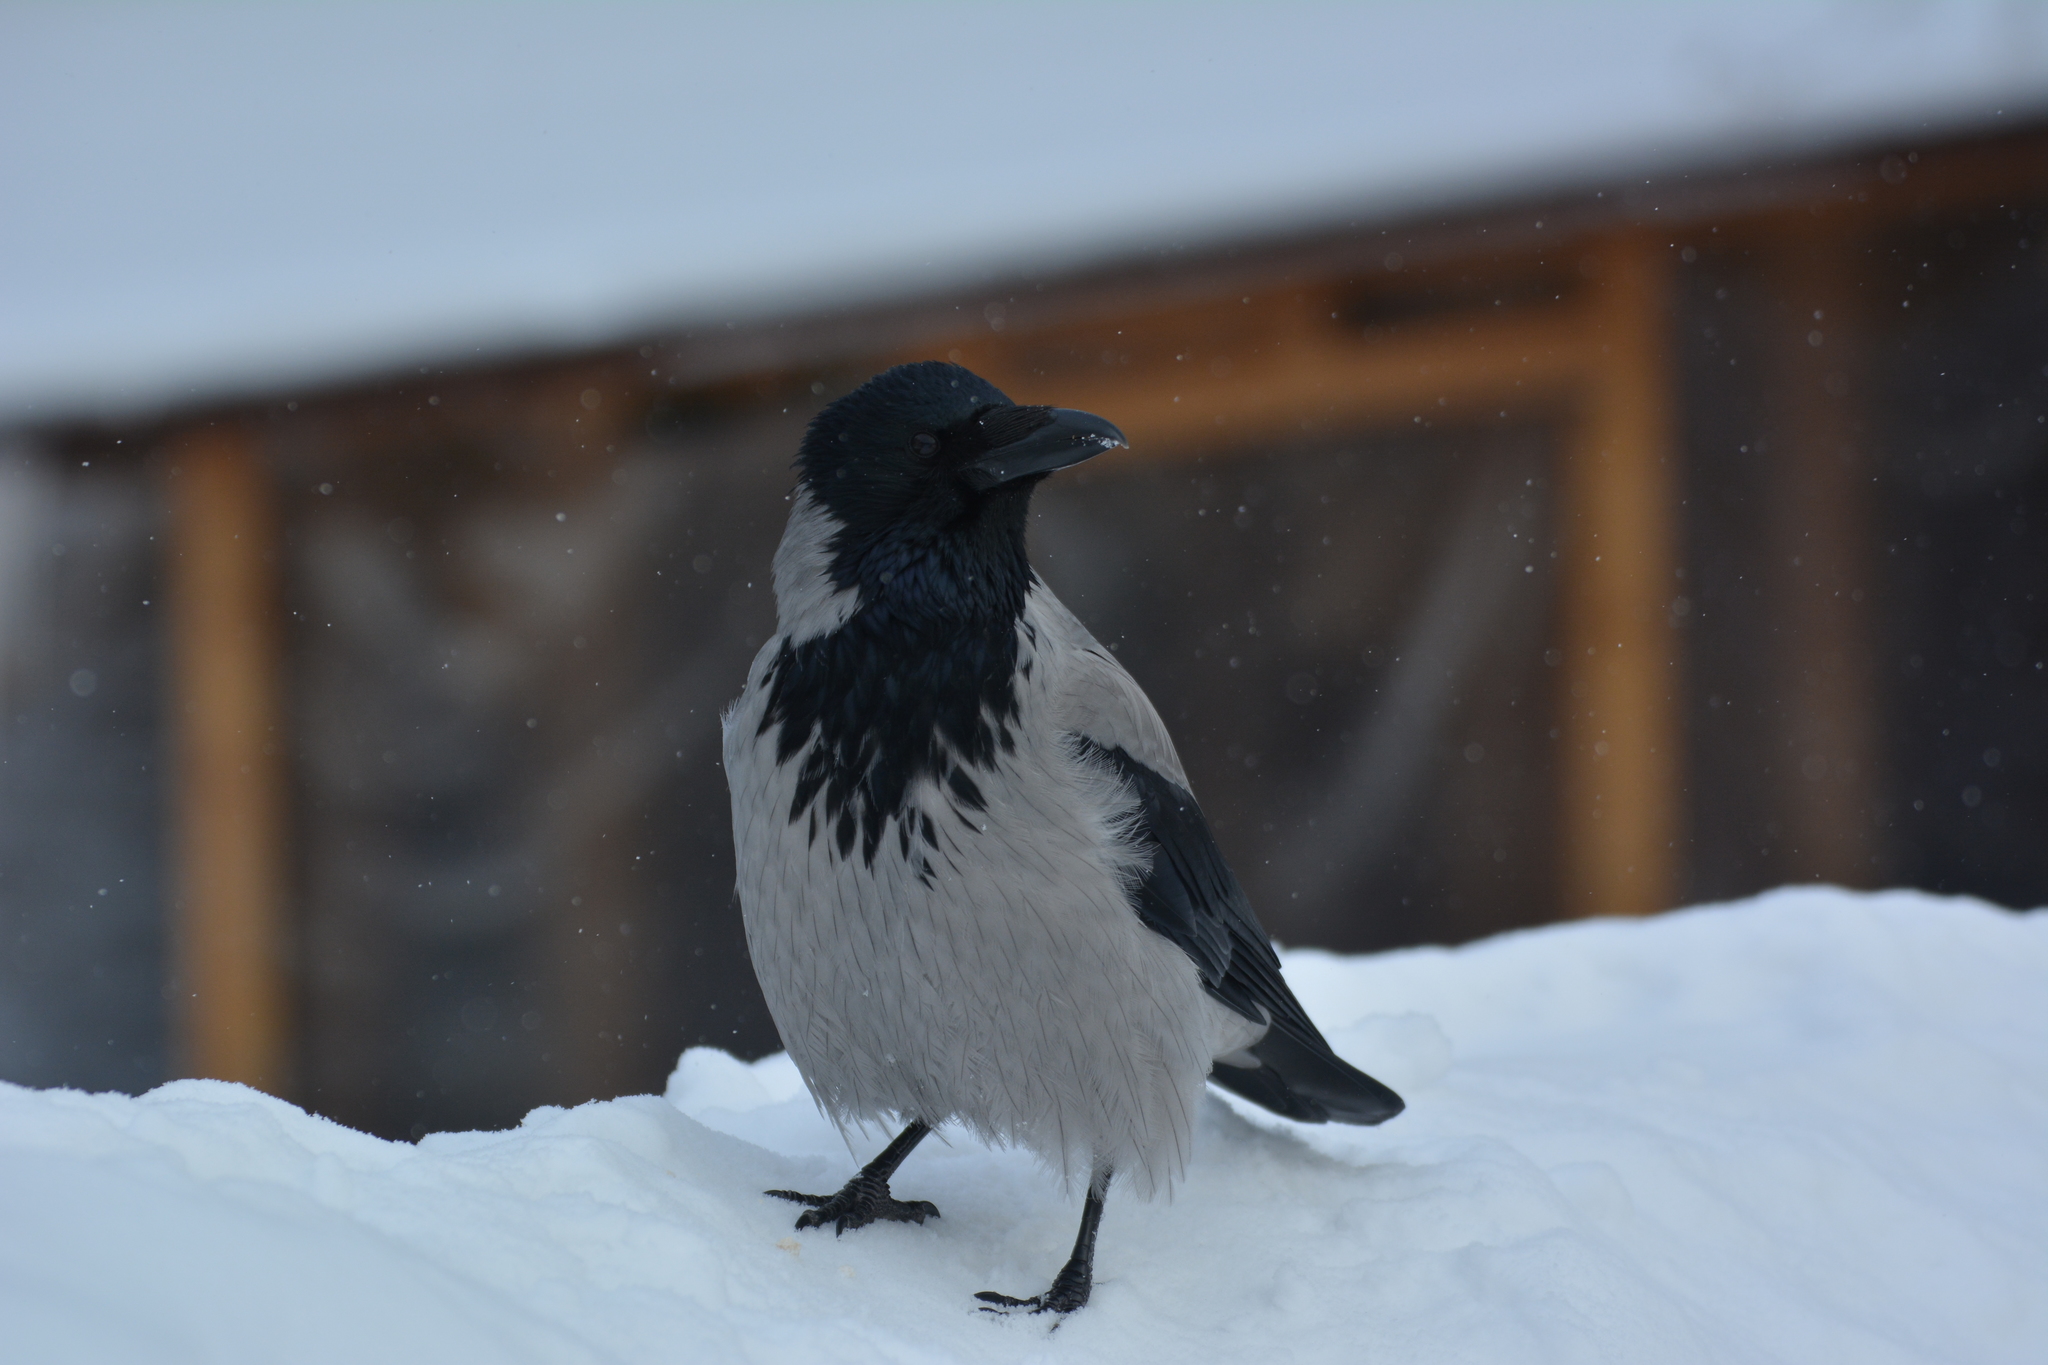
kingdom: Animalia
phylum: Chordata
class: Aves
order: Passeriformes
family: Corvidae
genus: Corvus
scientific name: Corvus cornix
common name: Hooded crow
